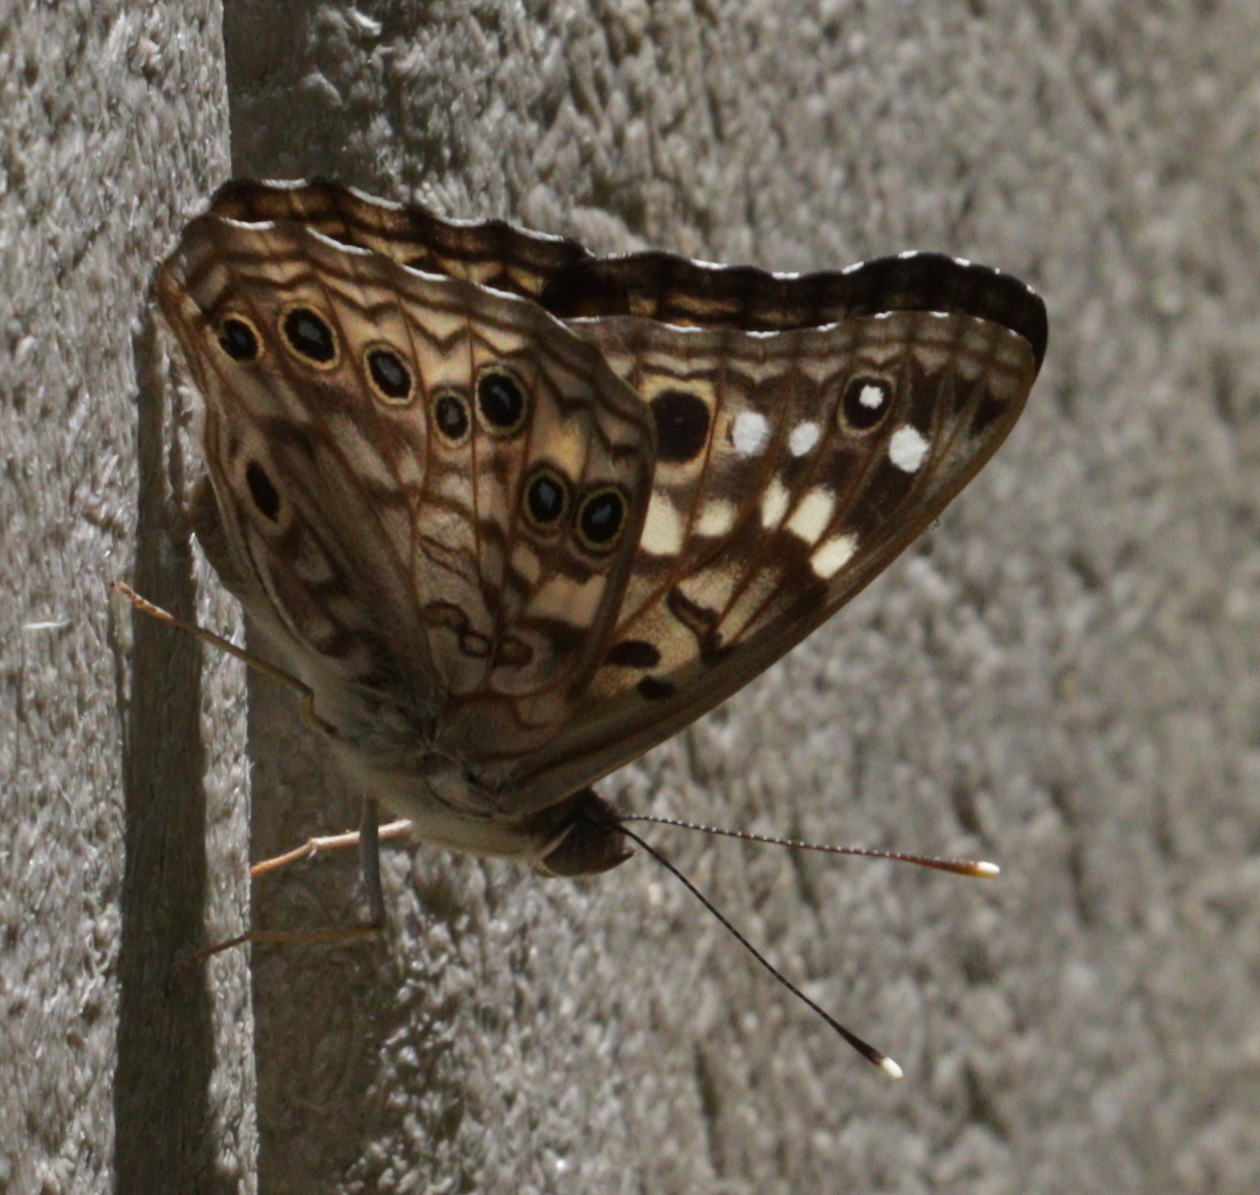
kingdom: Animalia
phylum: Arthropoda
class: Insecta
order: Lepidoptera
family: Nymphalidae
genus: Asterocampa
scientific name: Asterocampa celtis
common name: Hackberry emperor
